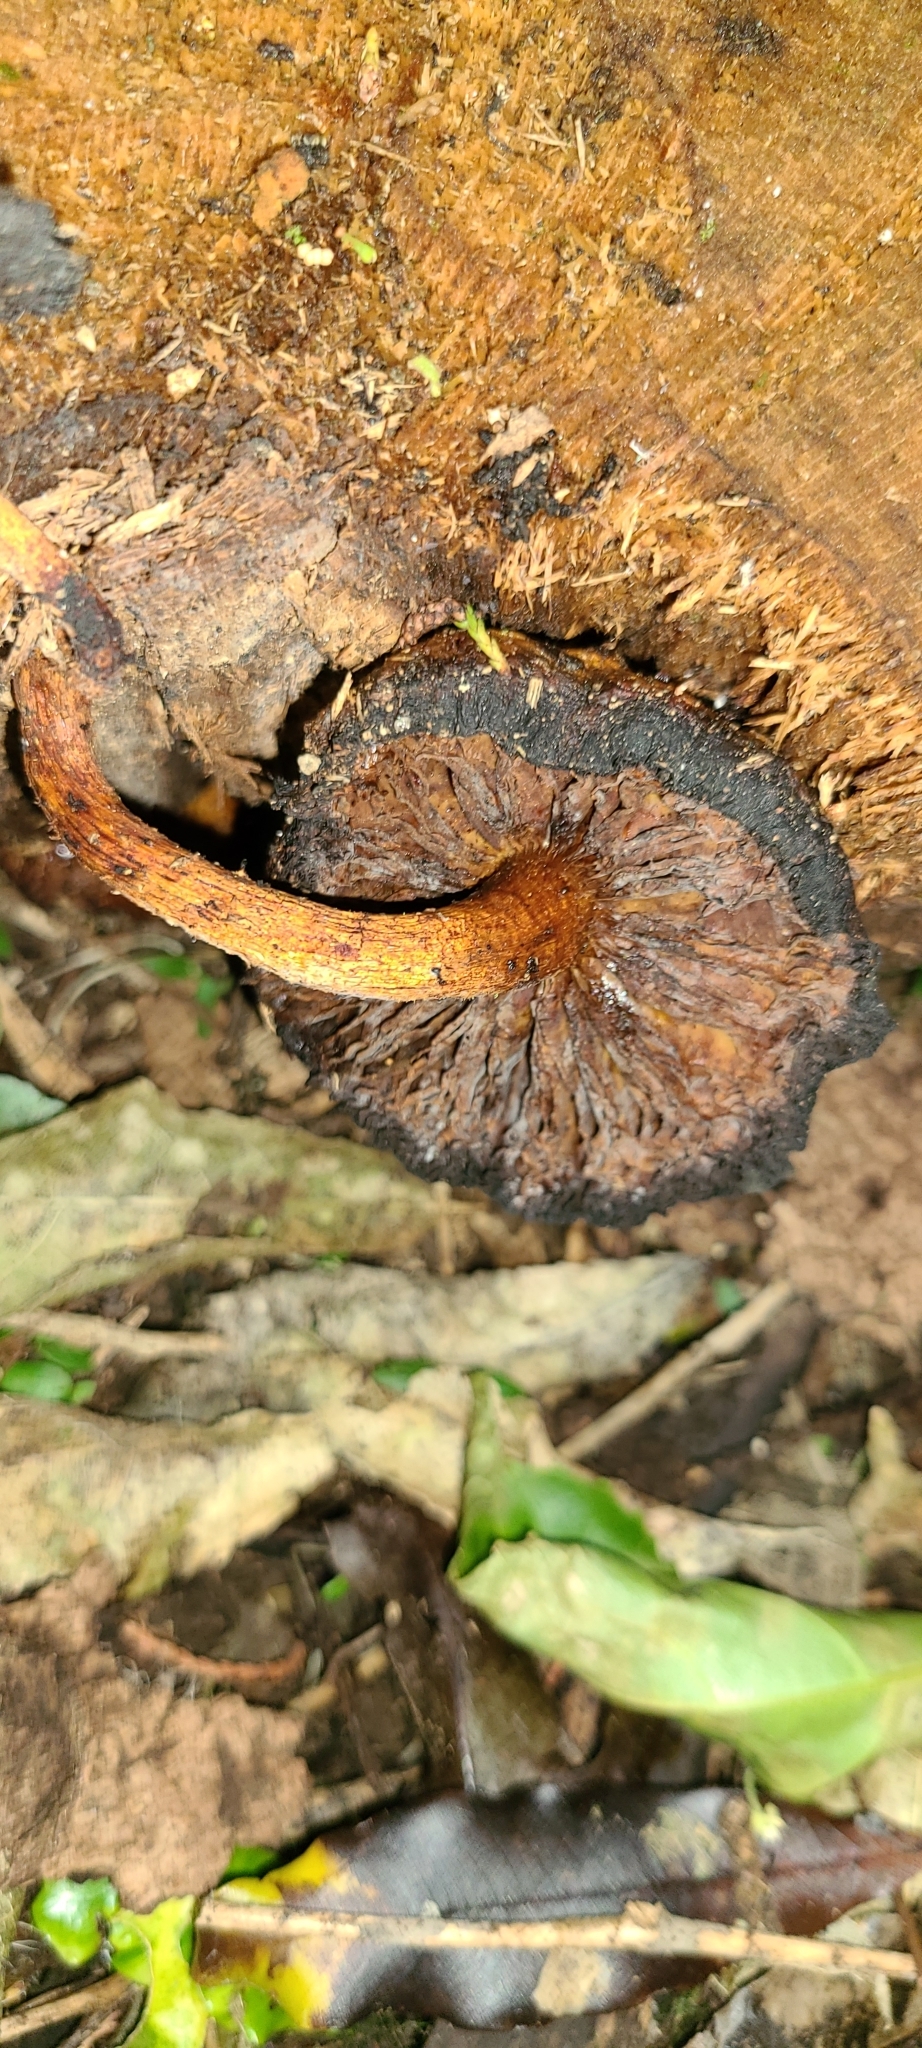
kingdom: Fungi
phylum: Basidiomycota
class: Agaricomycetes
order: Agaricales
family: Strophariaceae
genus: Pholiota
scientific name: Pholiota glutinosa
